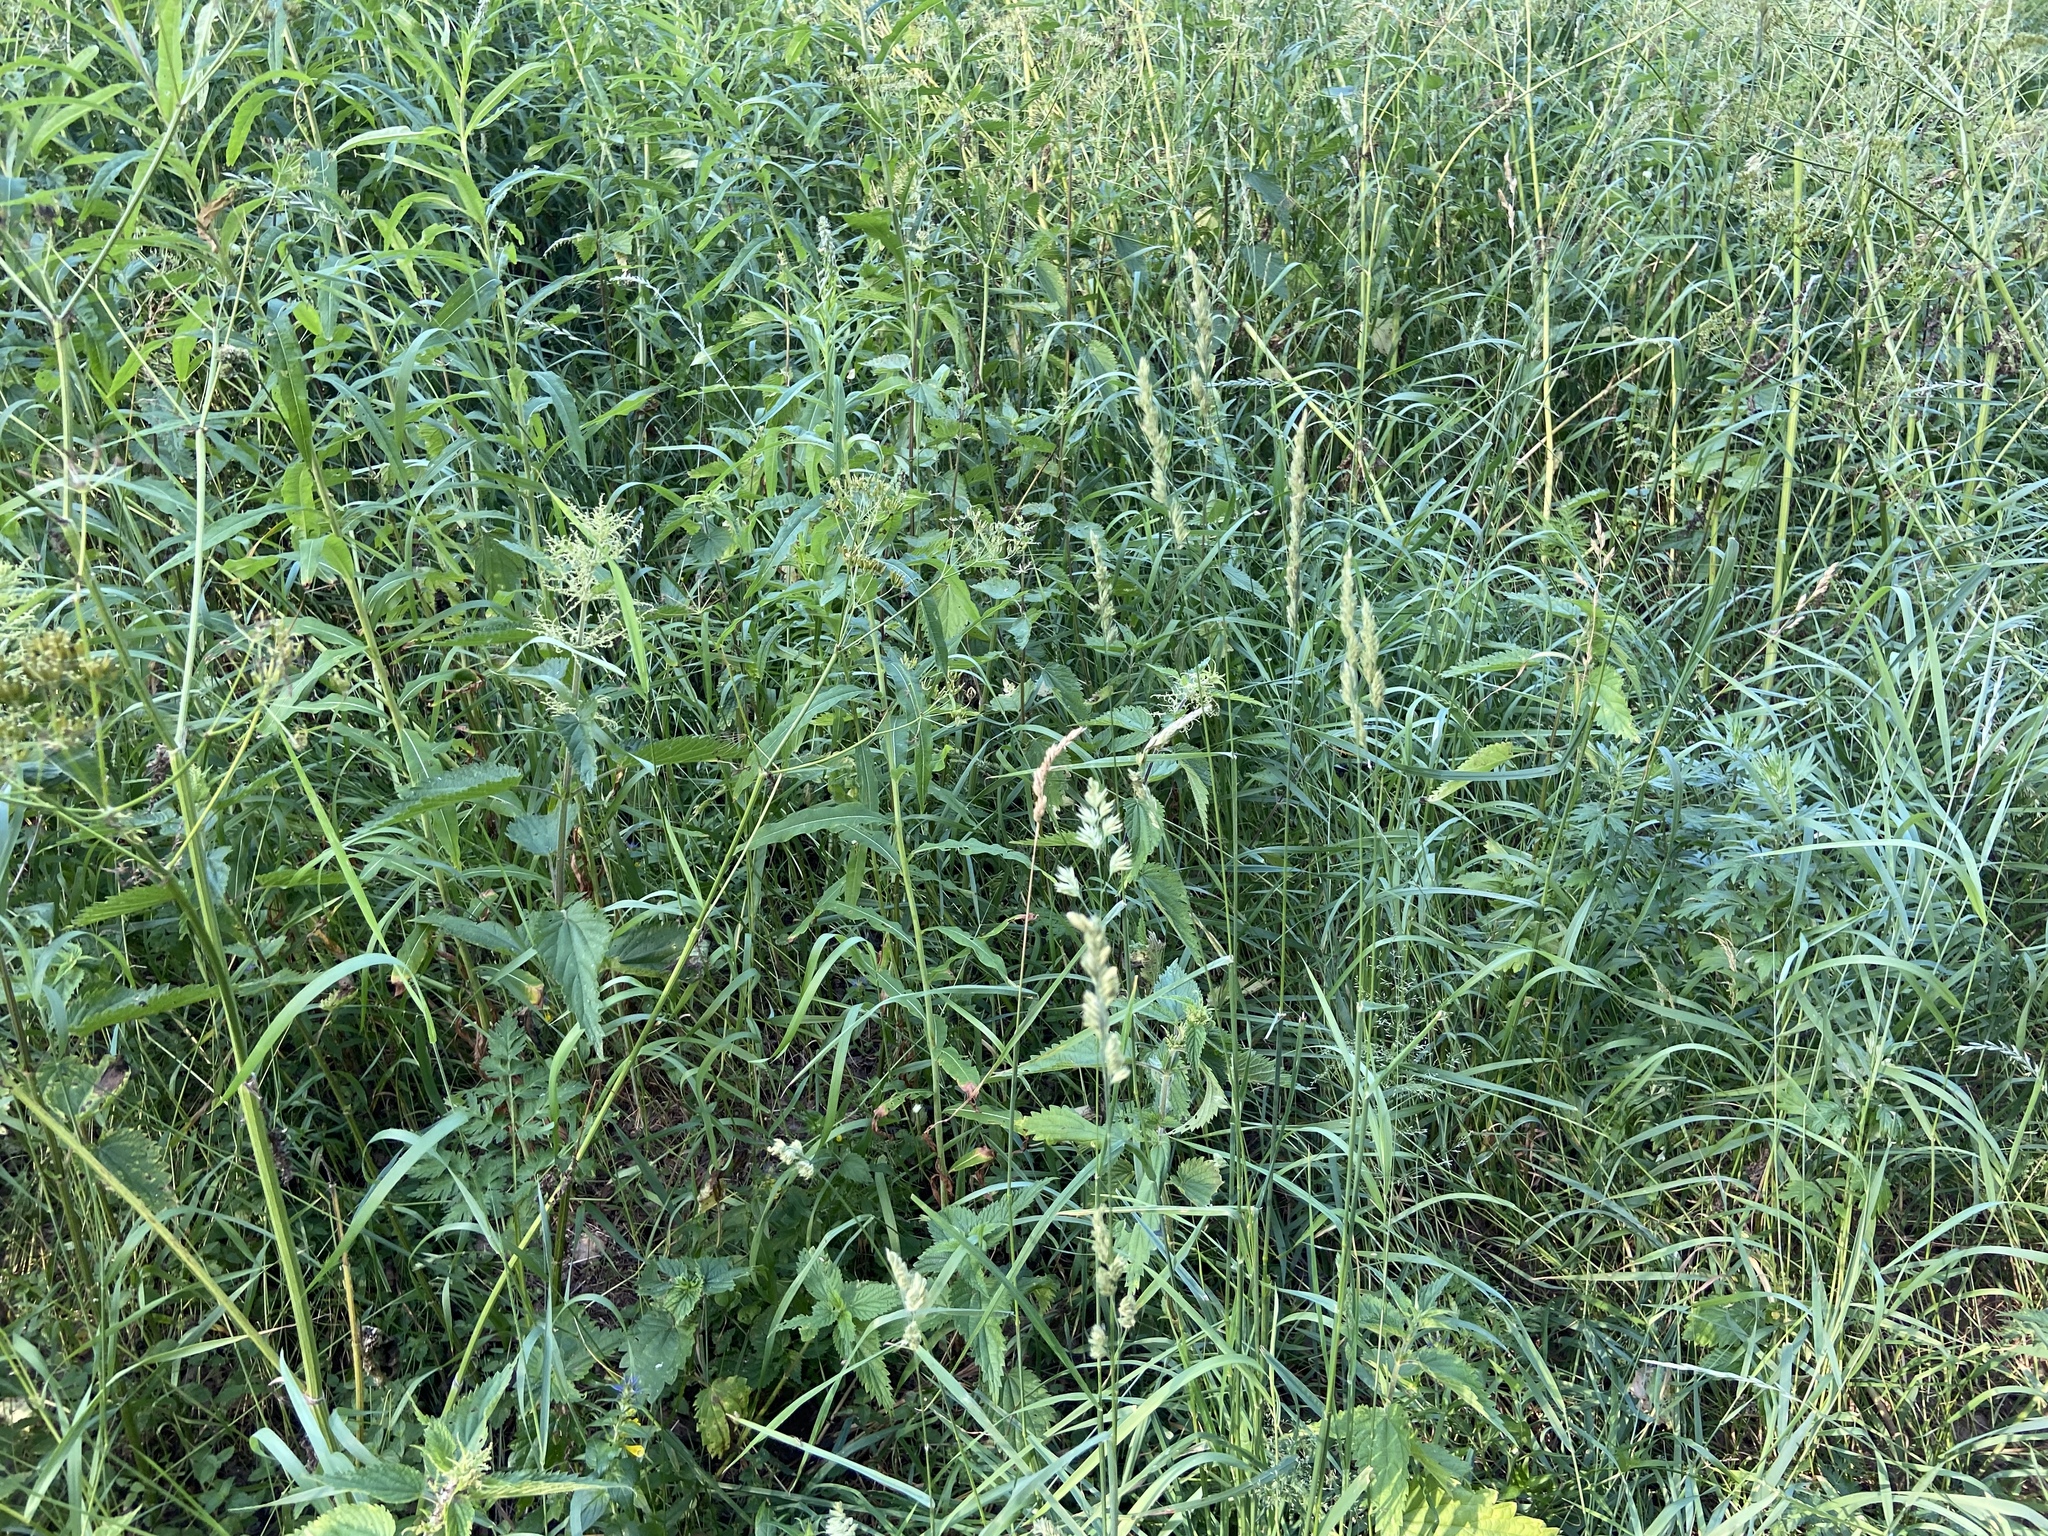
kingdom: Plantae
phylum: Tracheophyta
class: Magnoliopsida
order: Rosales
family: Urticaceae
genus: Urtica
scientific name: Urtica dioica
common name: Common nettle
